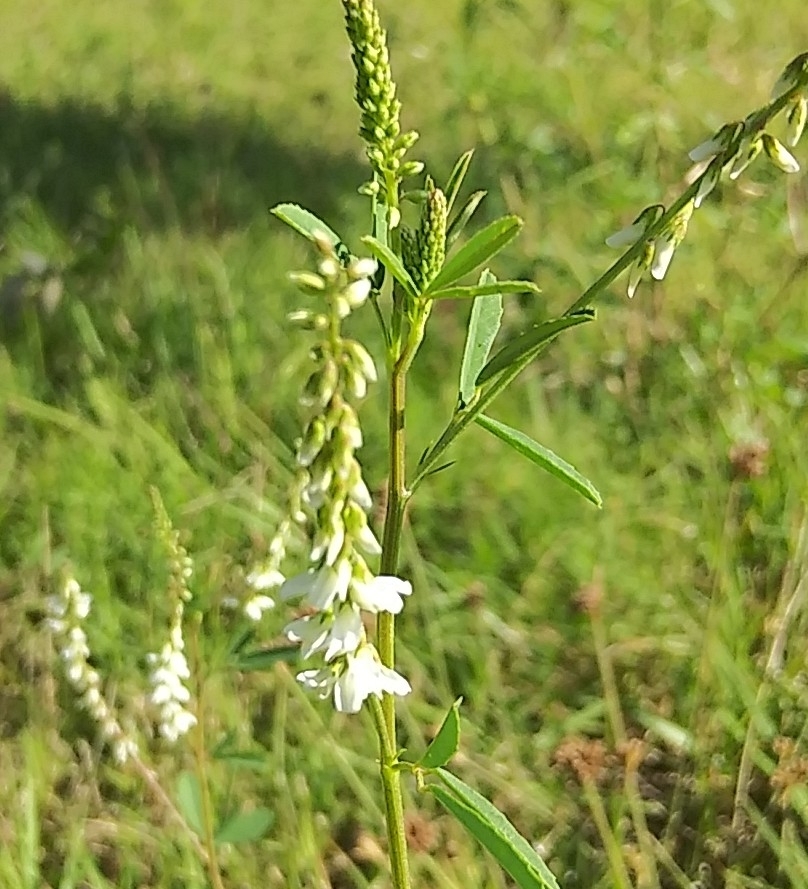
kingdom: Plantae
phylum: Tracheophyta
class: Magnoliopsida
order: Fabales
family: Fabaceae
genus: Melilotus
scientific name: Melilotus albus
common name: White melilot
